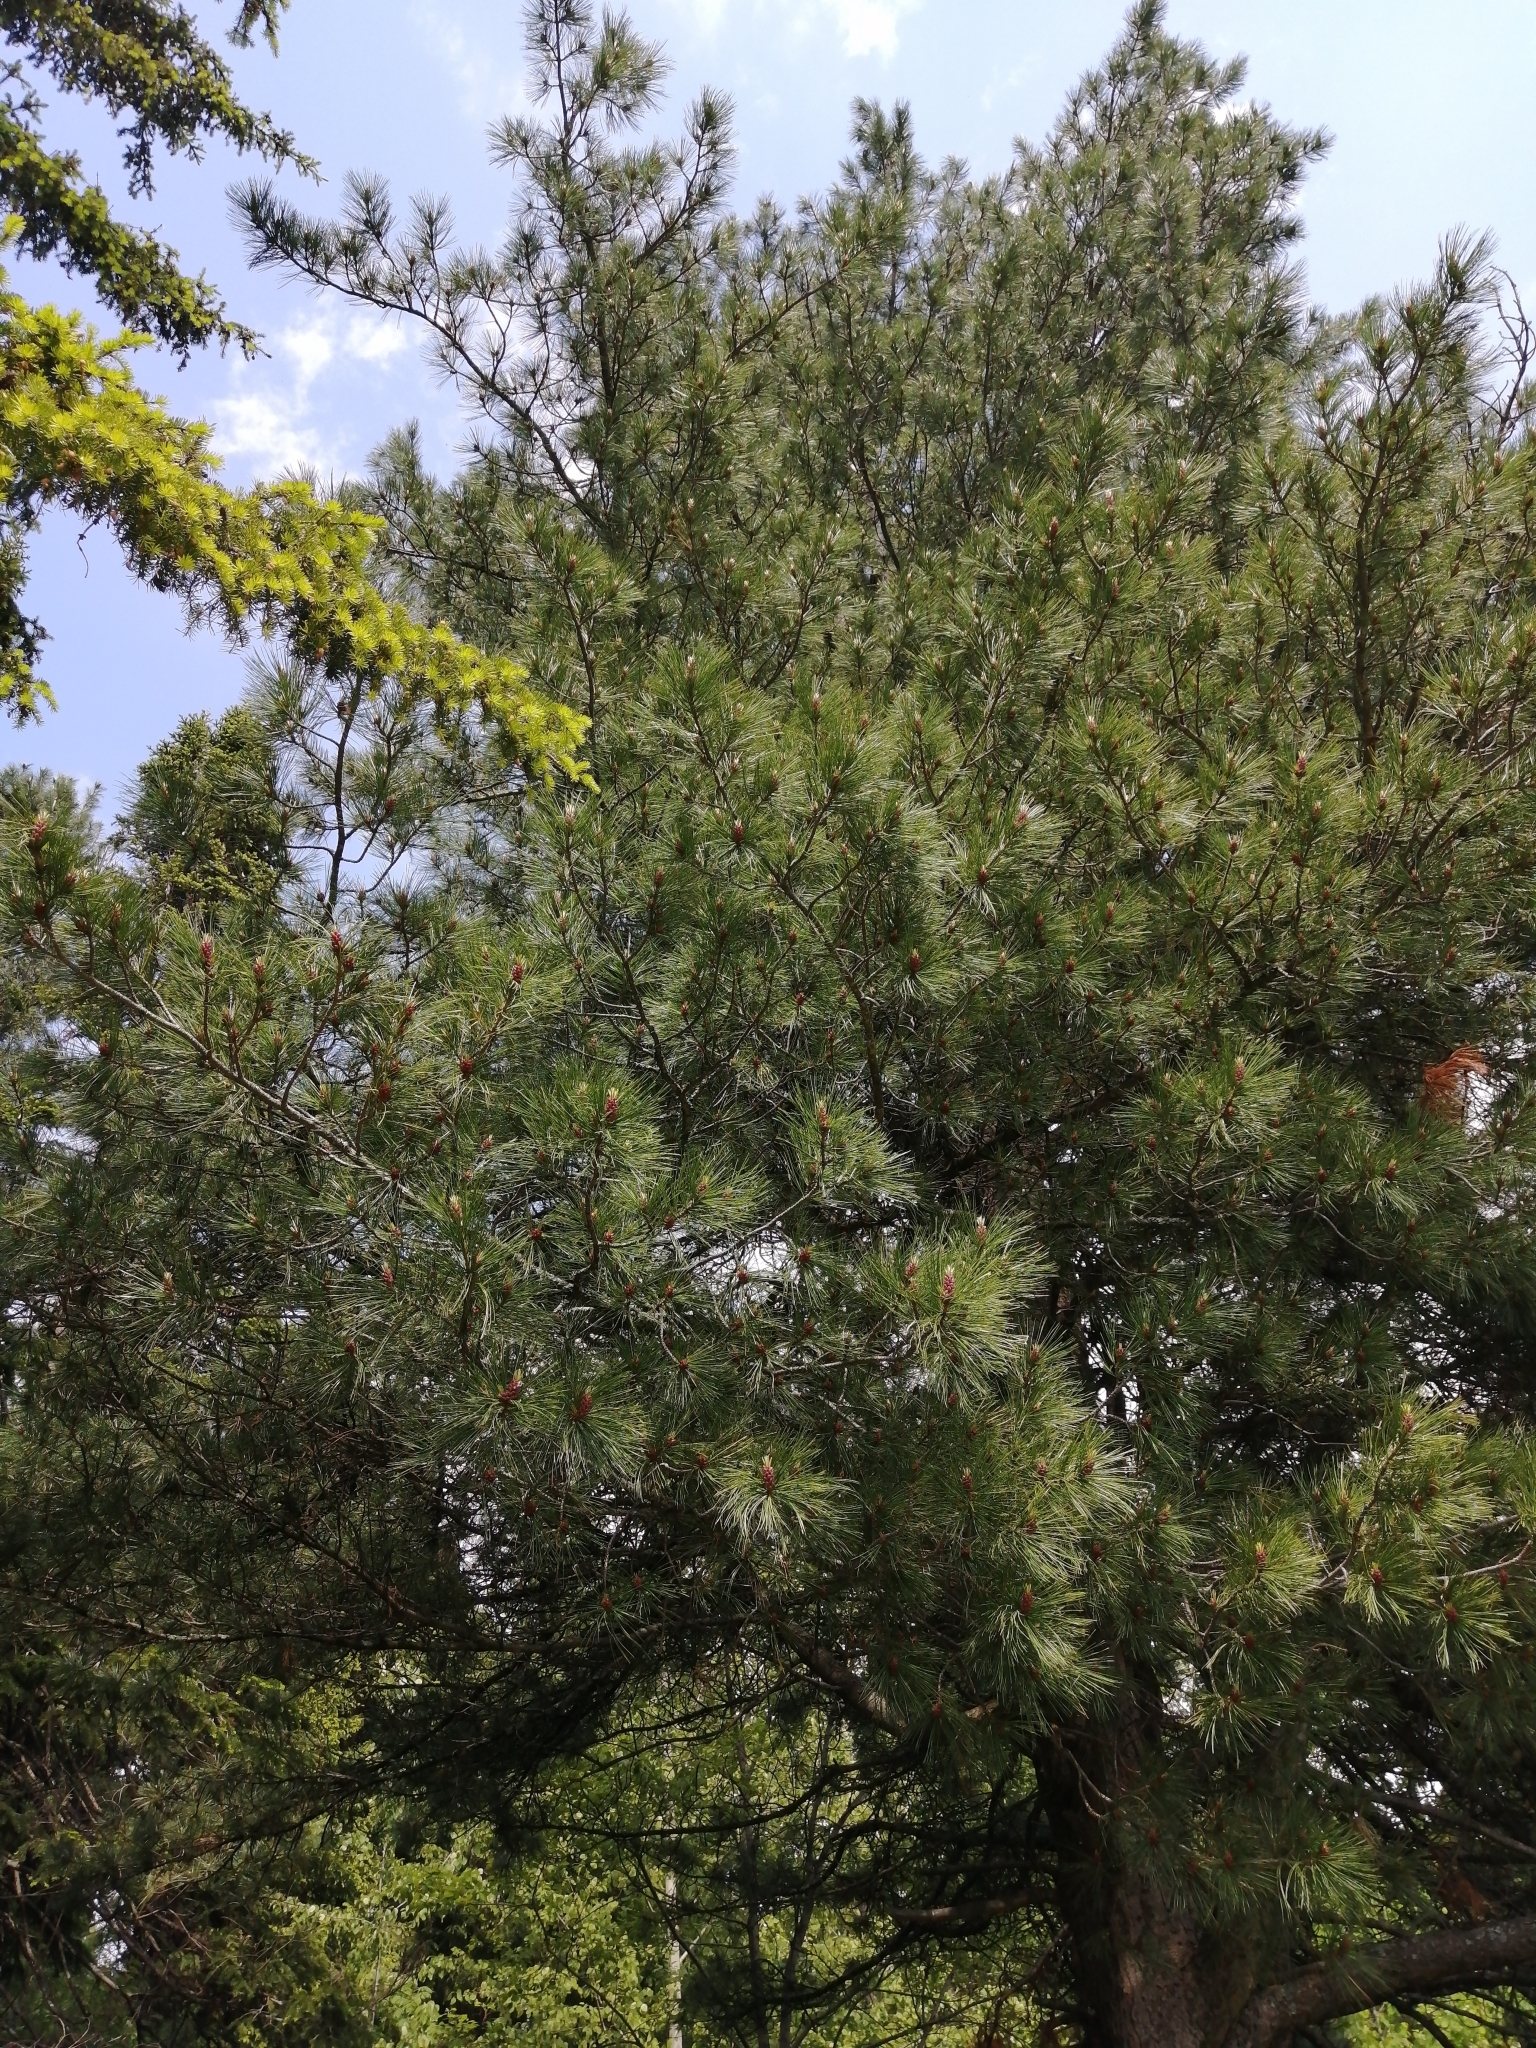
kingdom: Plantae
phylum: Tracheophyta
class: Pinopsida
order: Pinales
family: Pinaceae
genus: Pinus
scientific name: Pinus sibirica
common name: Siberian pine
